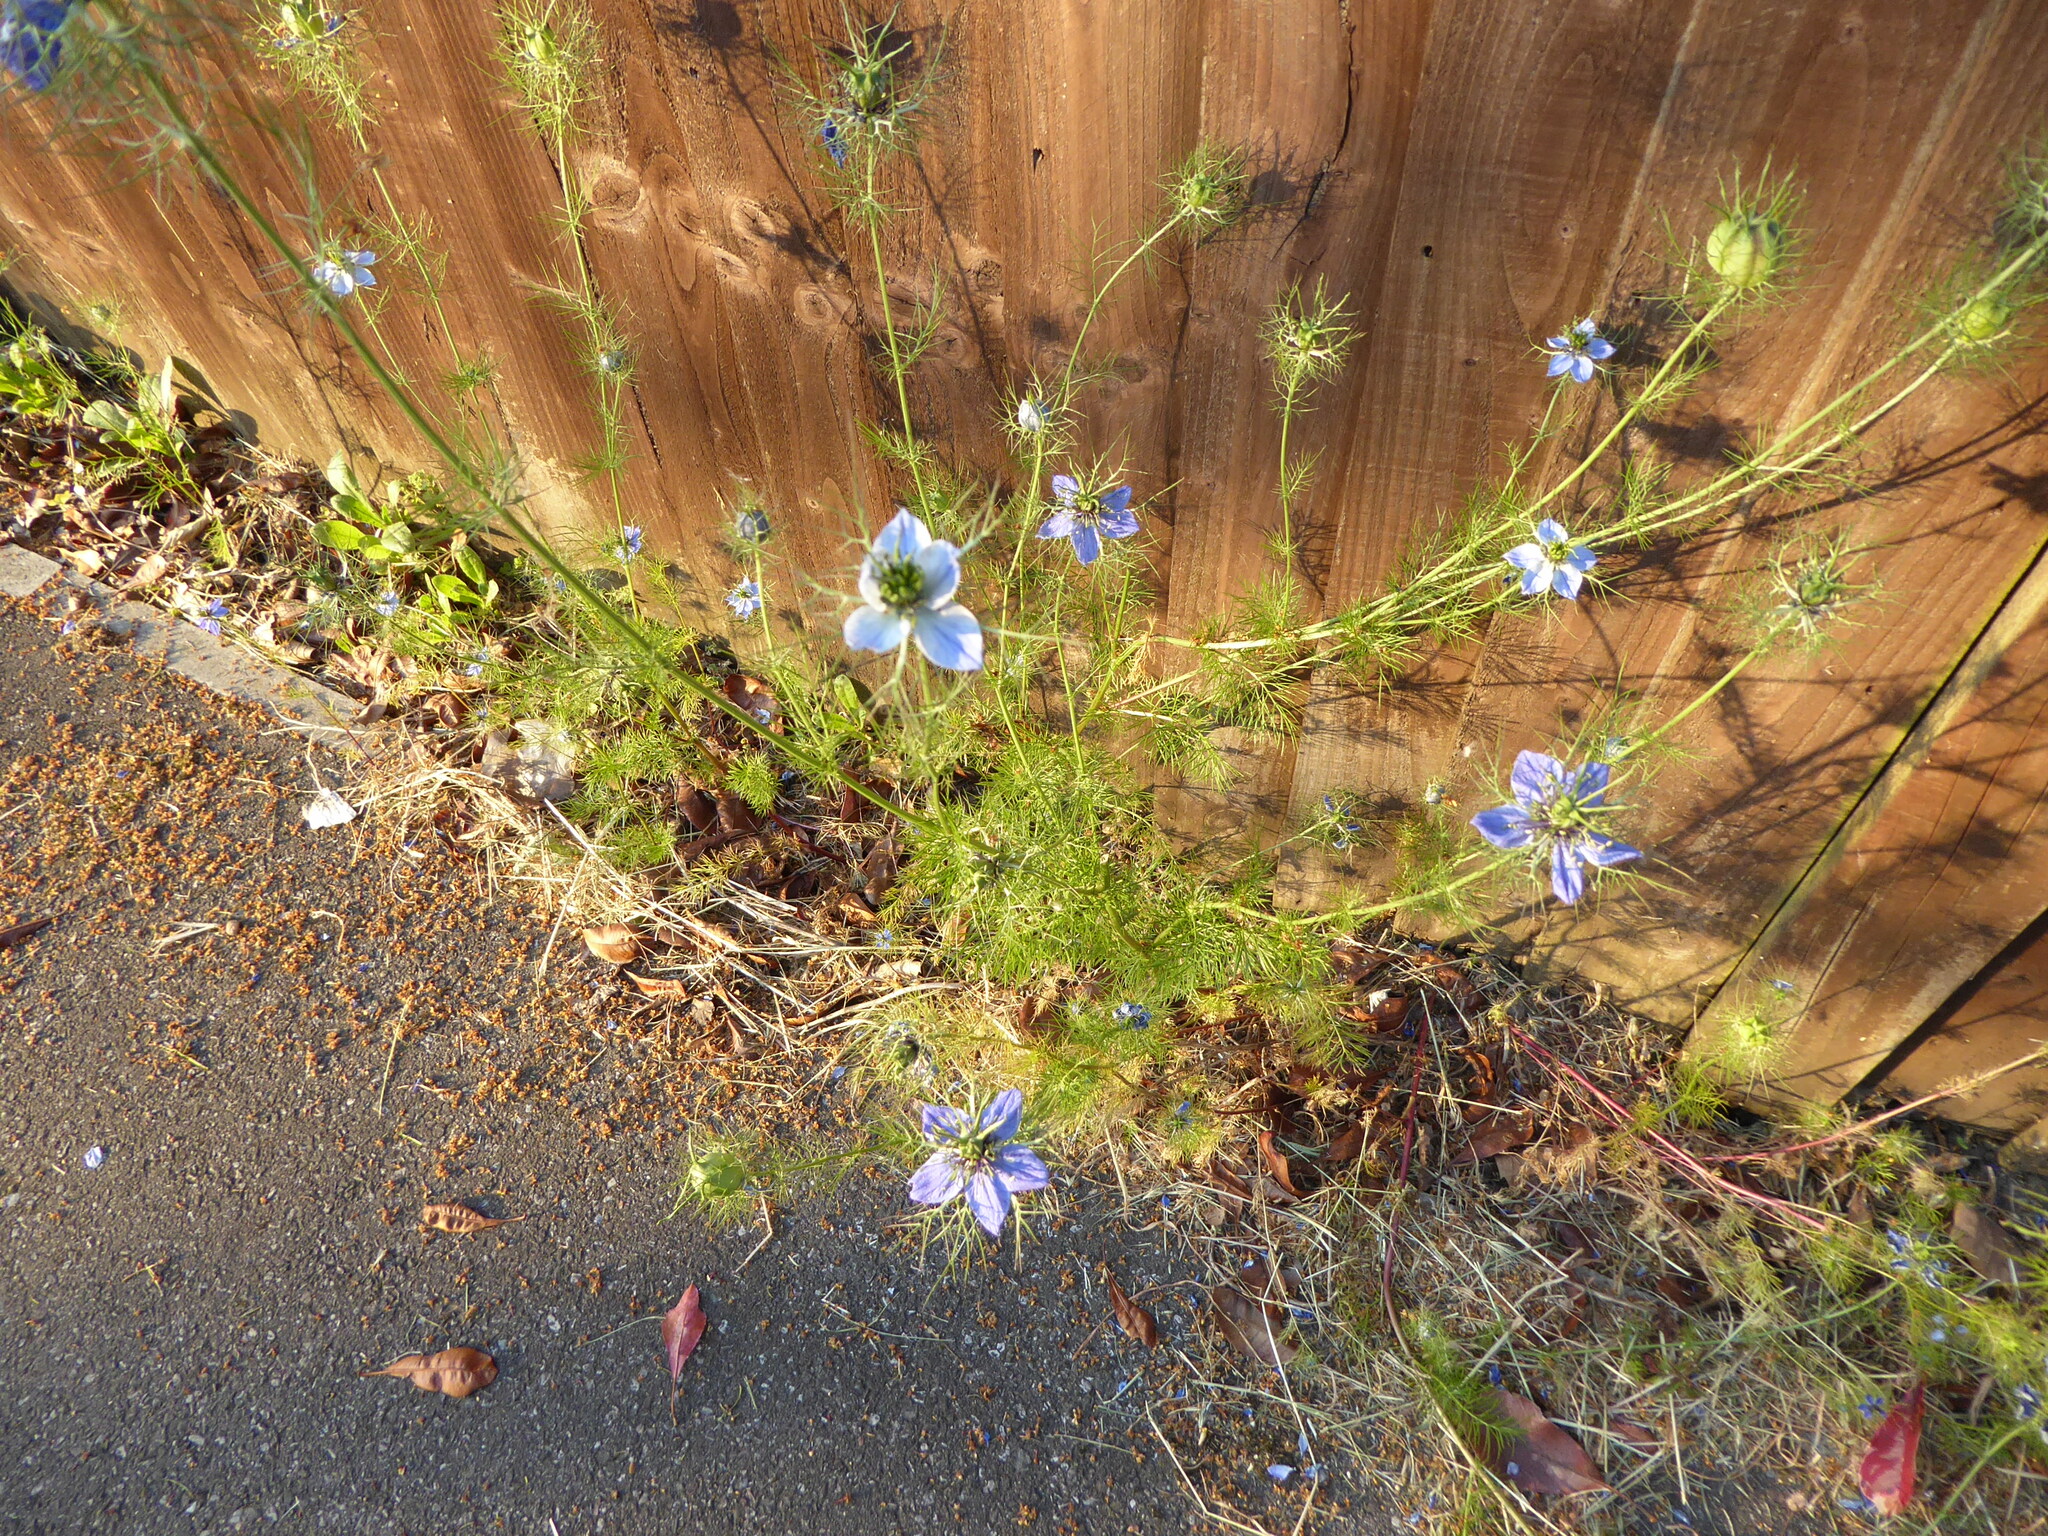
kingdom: Plantae
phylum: Tracheophyta
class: Magnoliopsida
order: Ranunculales
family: Ranunculaceae
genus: Nigella
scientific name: Nigella damascena
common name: Love-in-a-mist
